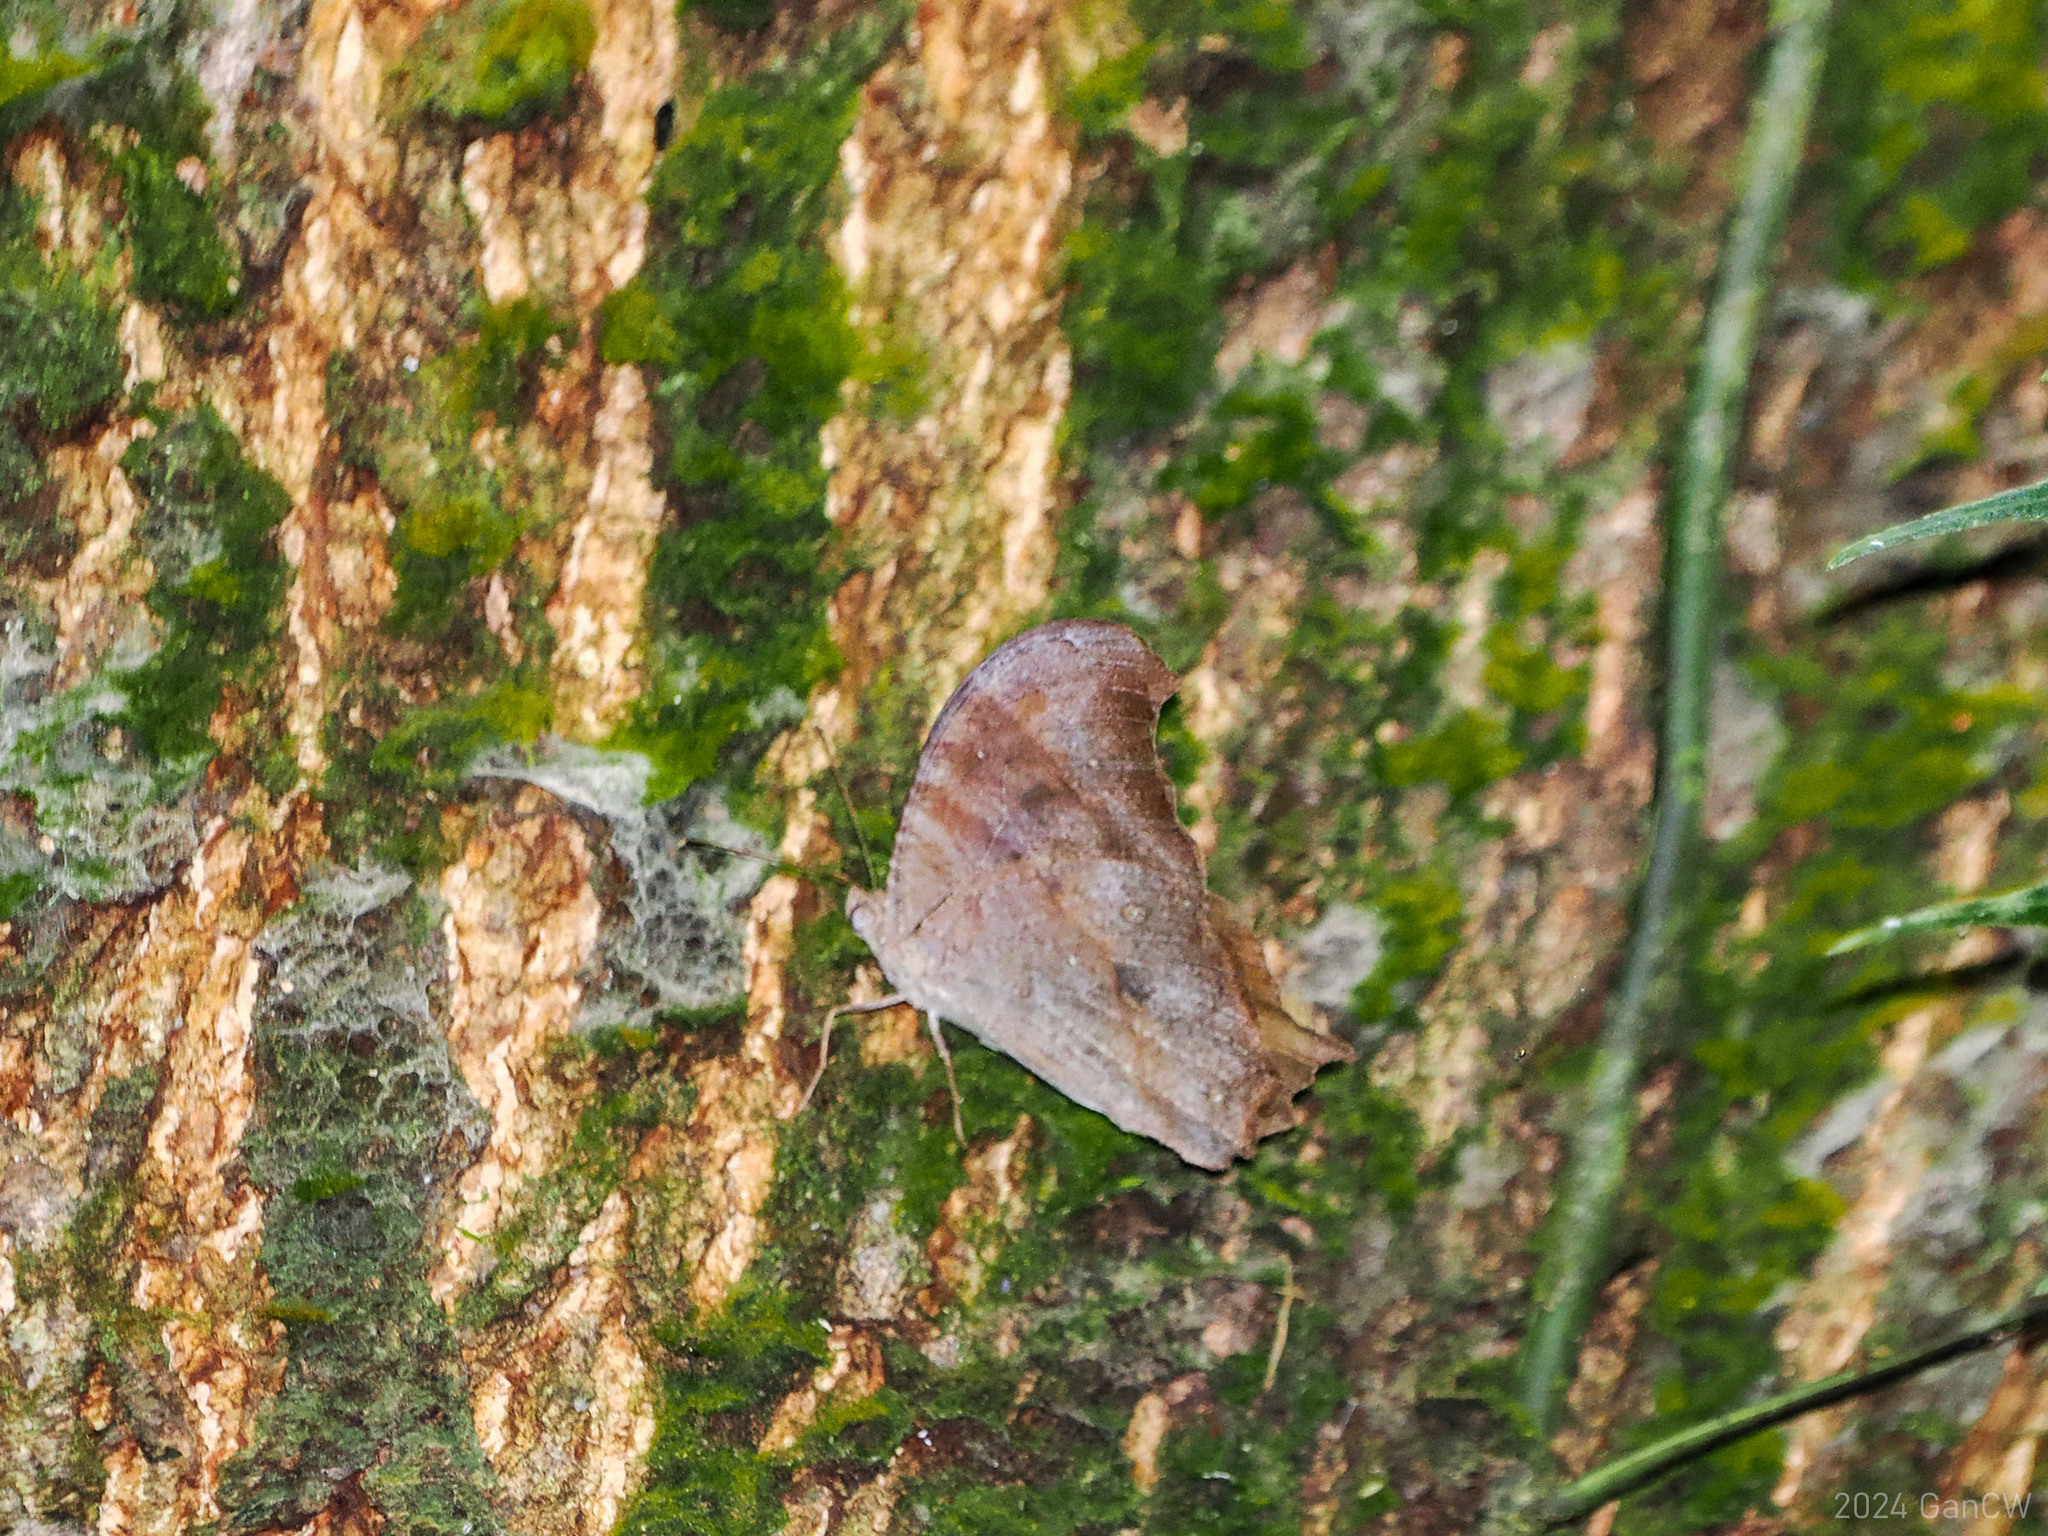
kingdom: Animalia
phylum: Arthropoda
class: Insecta
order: Lepidoptera
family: Nymphalidae
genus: Melanitis
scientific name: Melanitis leda
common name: Twilight brown
